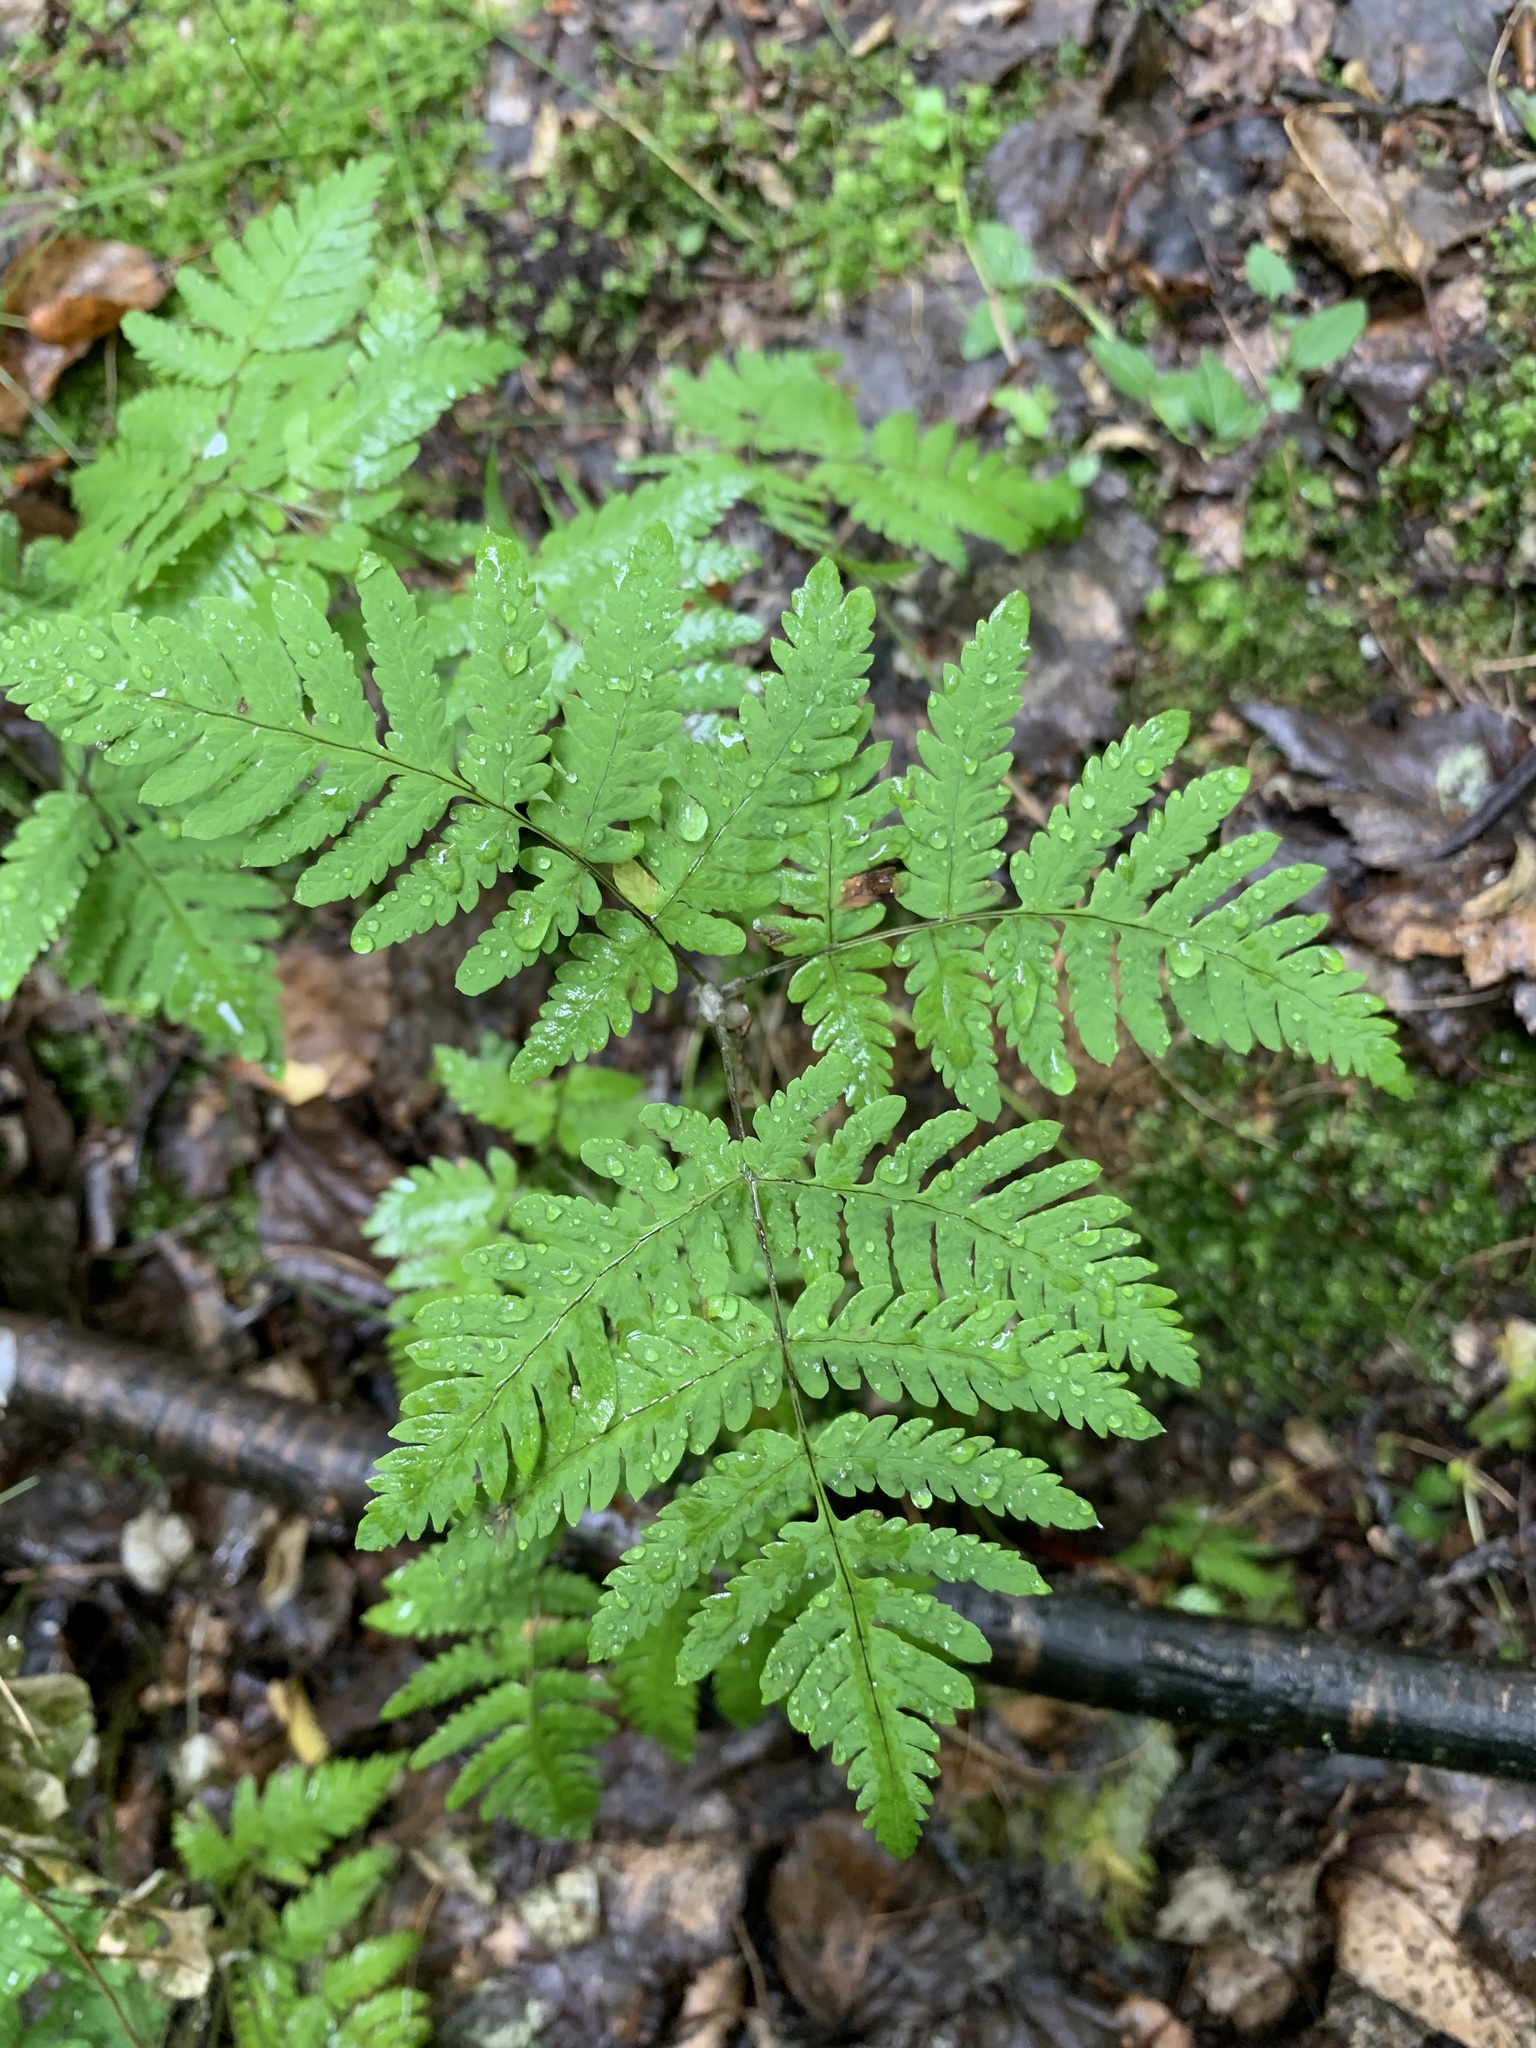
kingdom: Plantae
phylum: Tracheophyta
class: Polypodiopsida
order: Polypodiales
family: Cystopteridaceae
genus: Gymnocarpium
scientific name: Gymnocarpium dryopteris
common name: Oak fern
